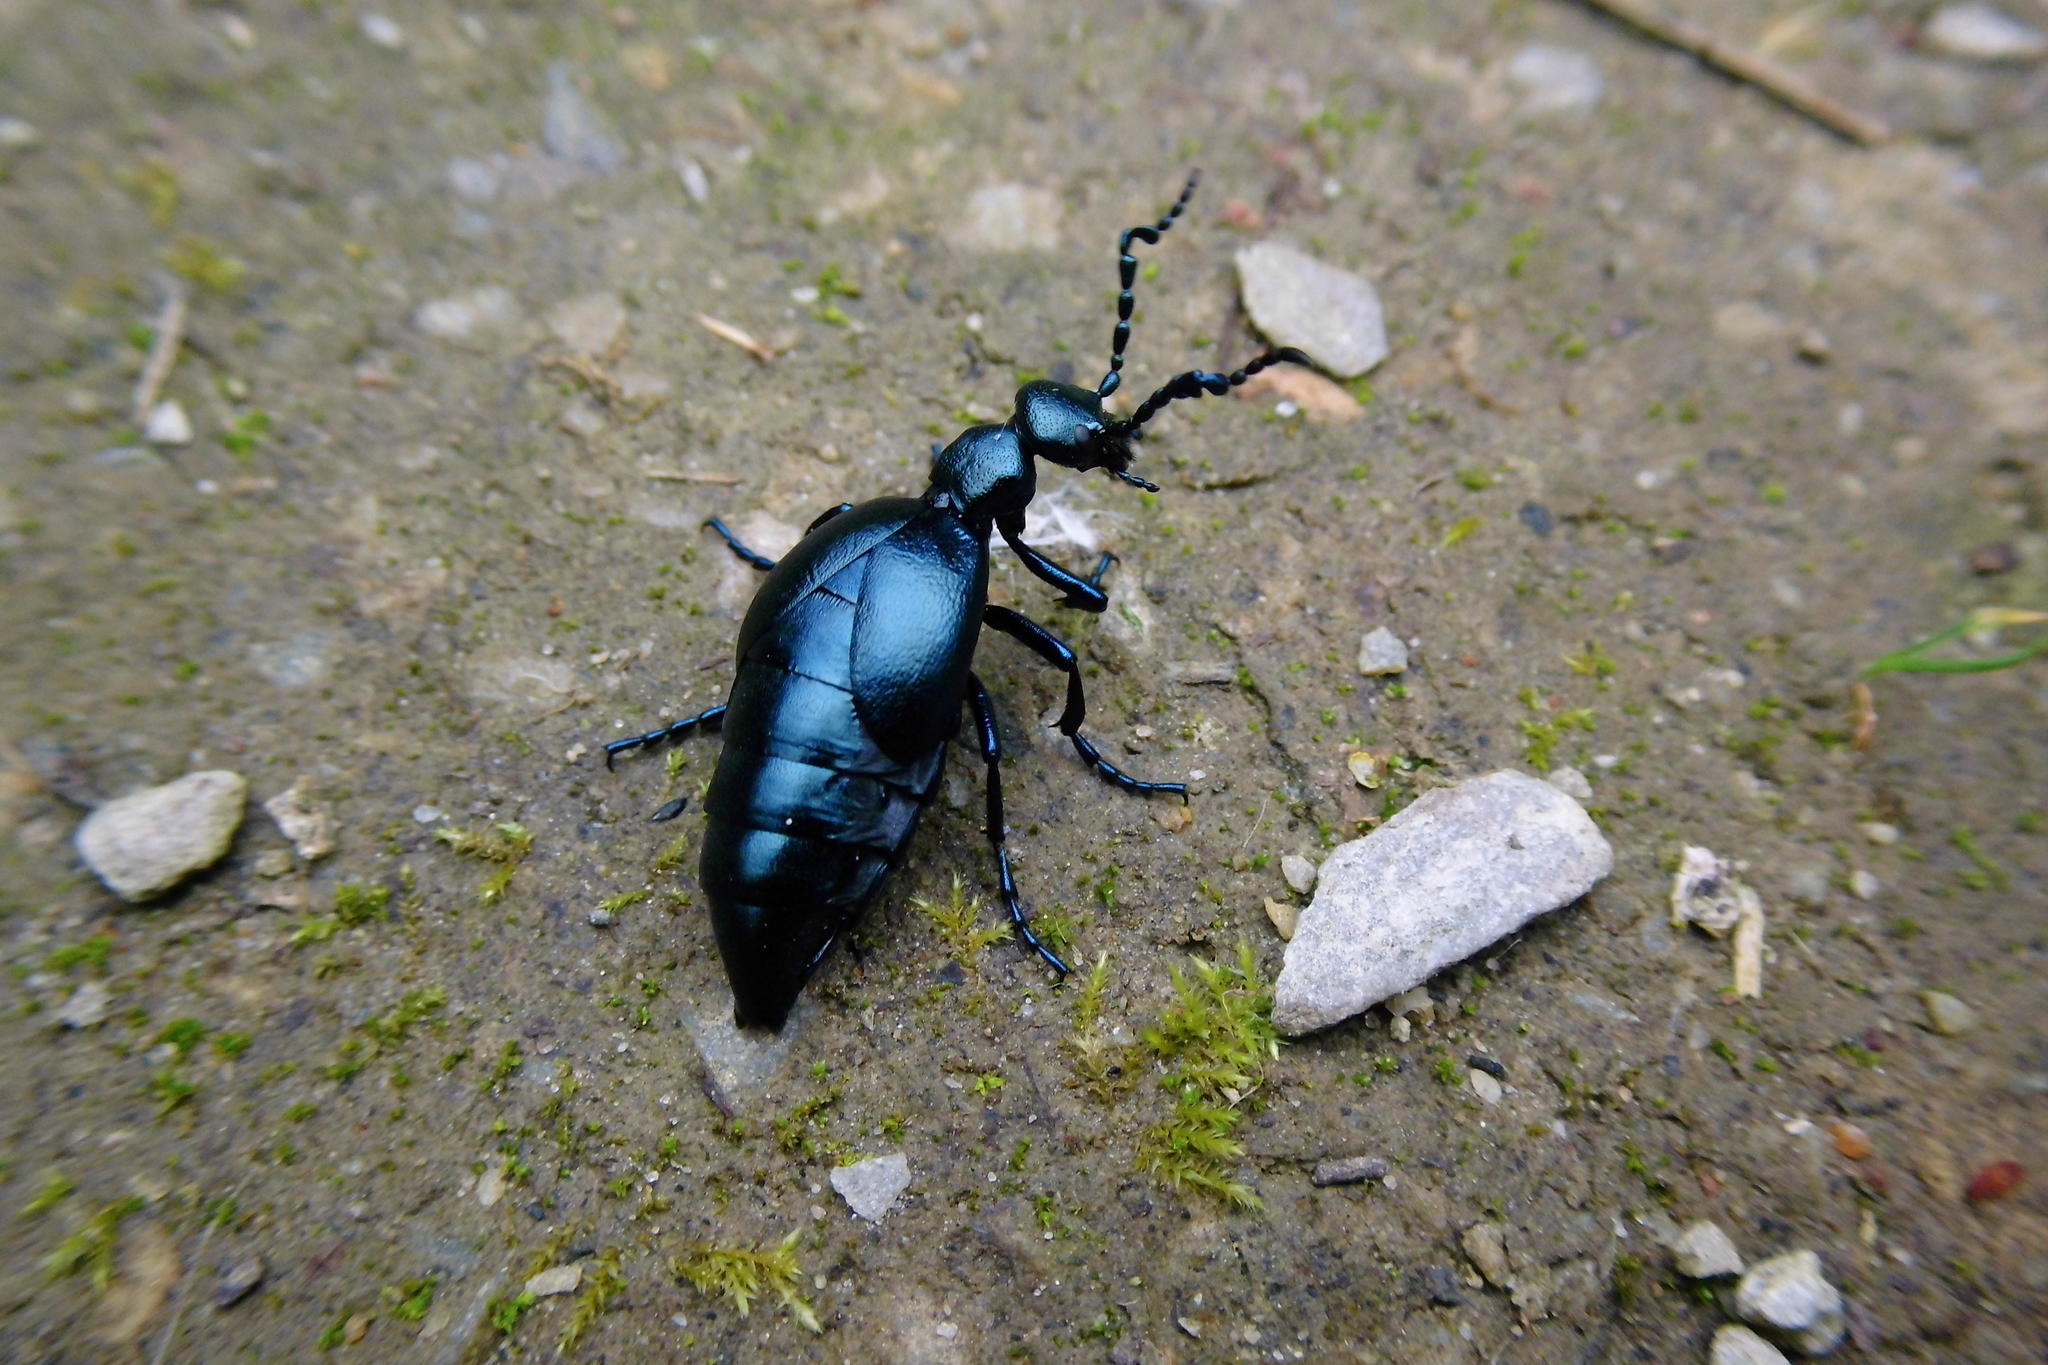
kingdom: Animalia
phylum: Arthropoda
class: Insecta
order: Coleoptera
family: Meloidae
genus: Meloe
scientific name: Meloe violaceus
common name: Violet oil-beetle
